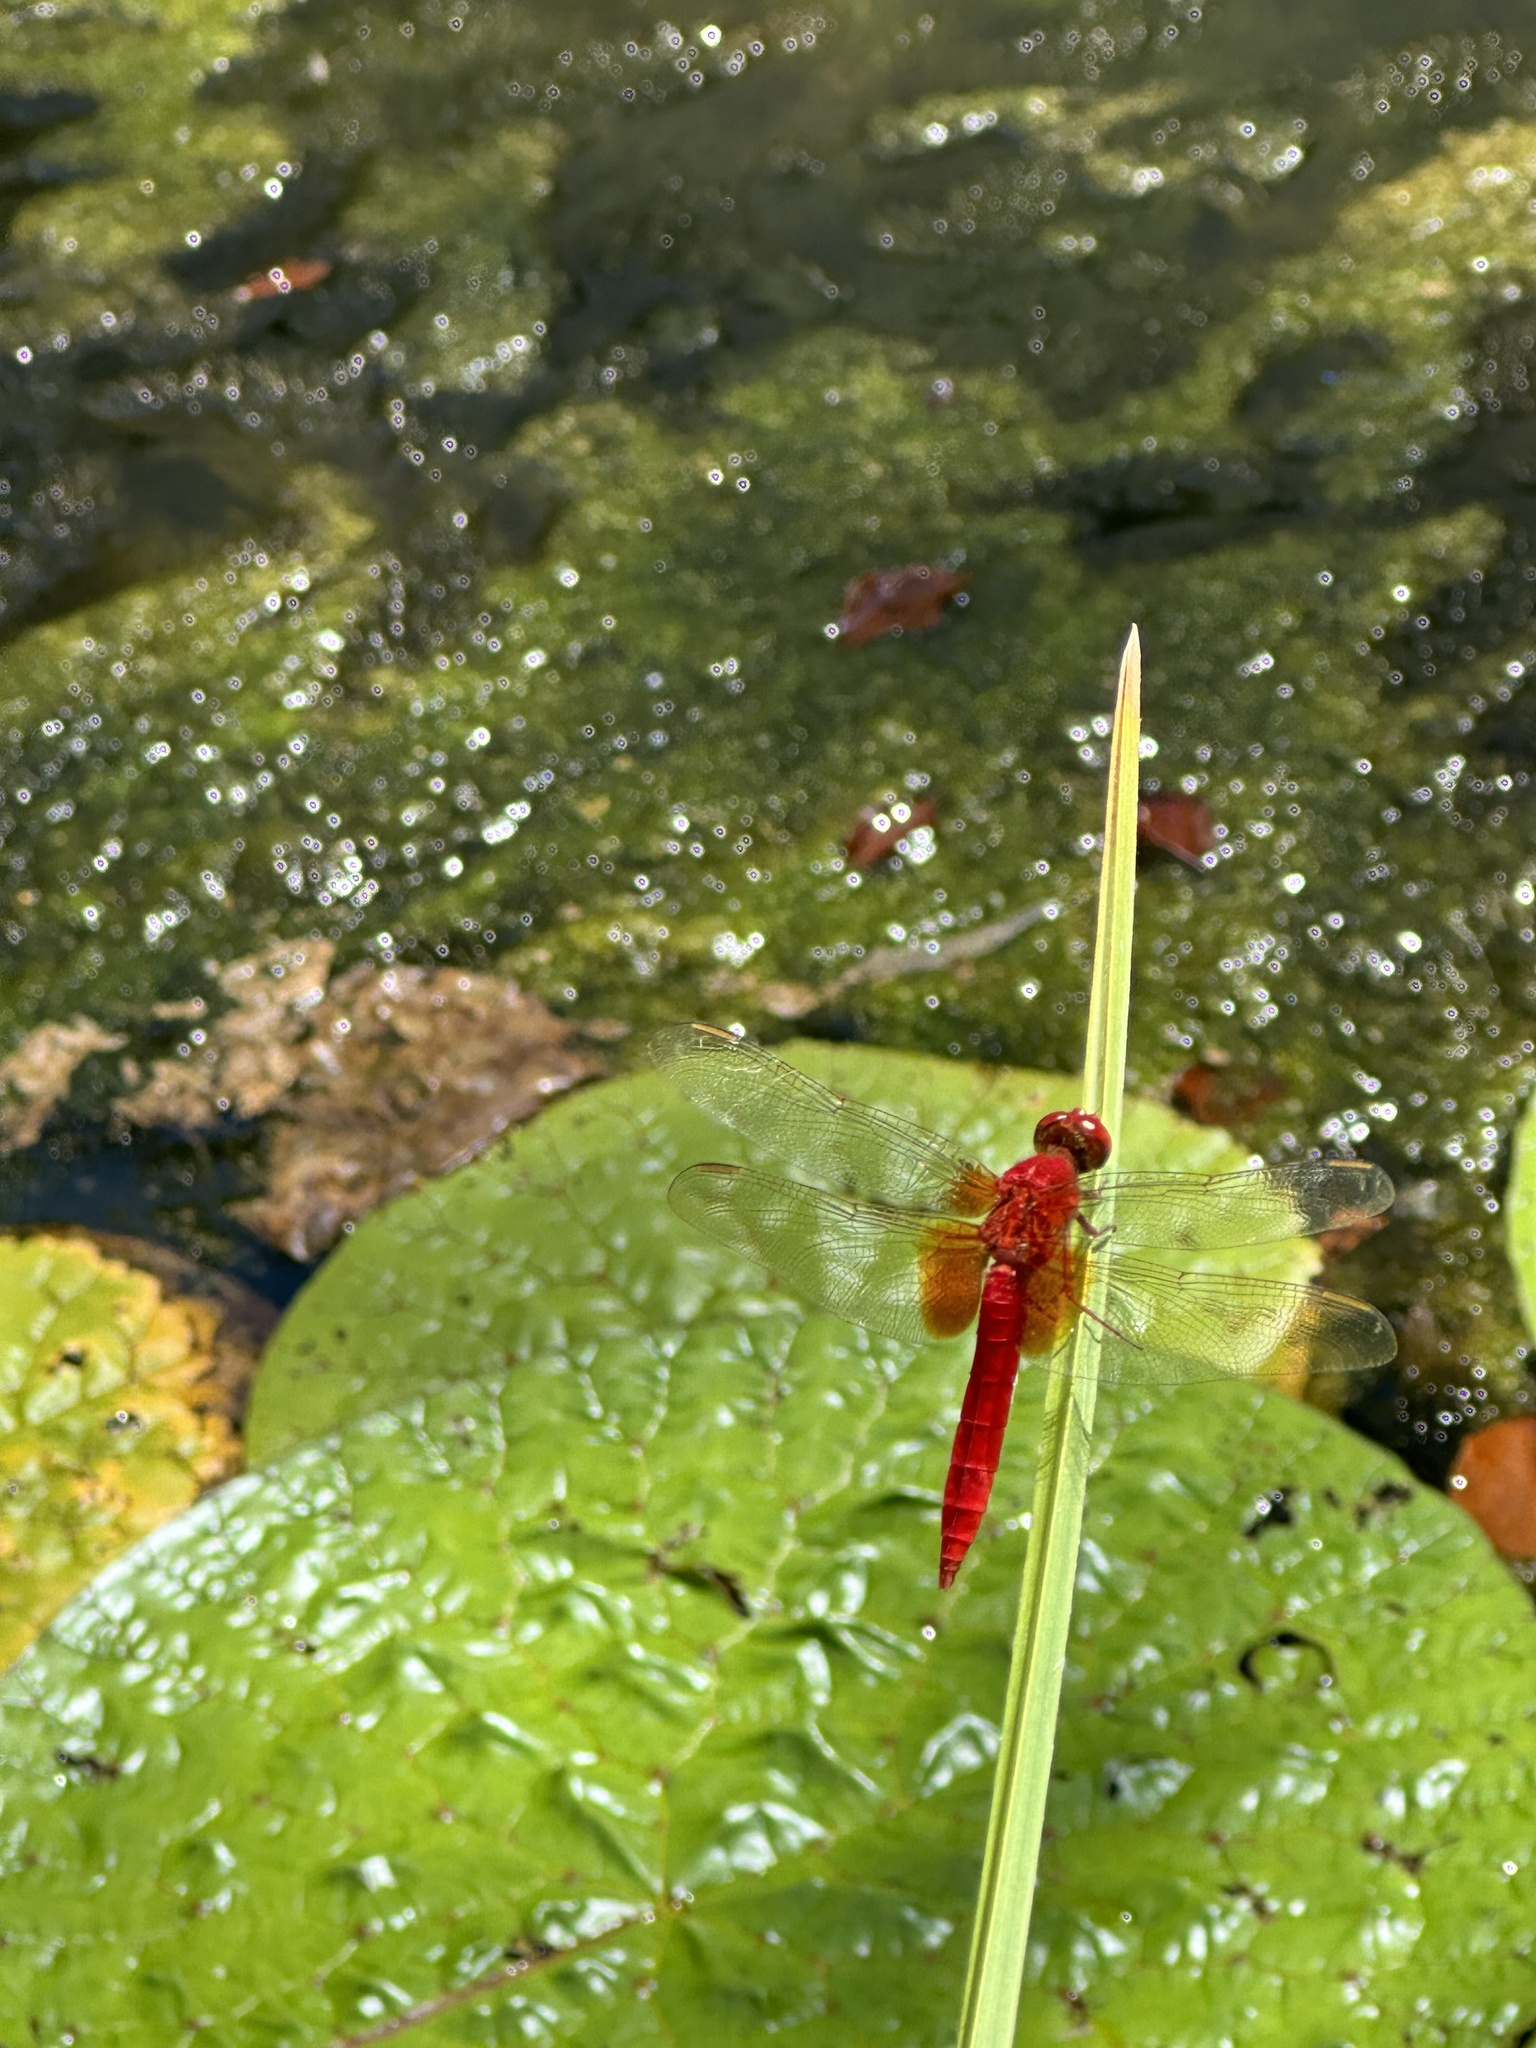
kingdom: Animalia
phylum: Arthropoda
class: Insecta
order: Odonata
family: Libellulidae
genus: Crocothemis
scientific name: Crocothemis servilia
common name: Scarlet skimmer
